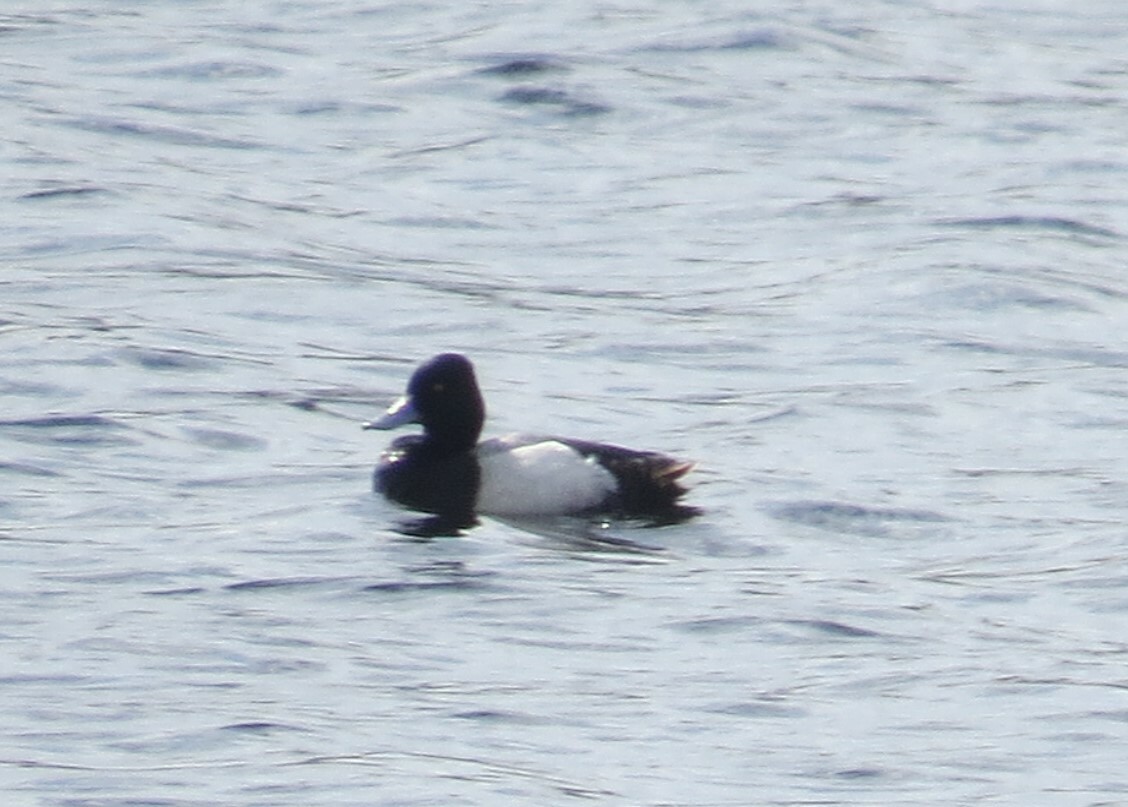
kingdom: Animalia
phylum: Chordata
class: Aves
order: Anseriformes
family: Anatidae
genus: Aythya
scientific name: Aythya affinis
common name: Lesser scaup
